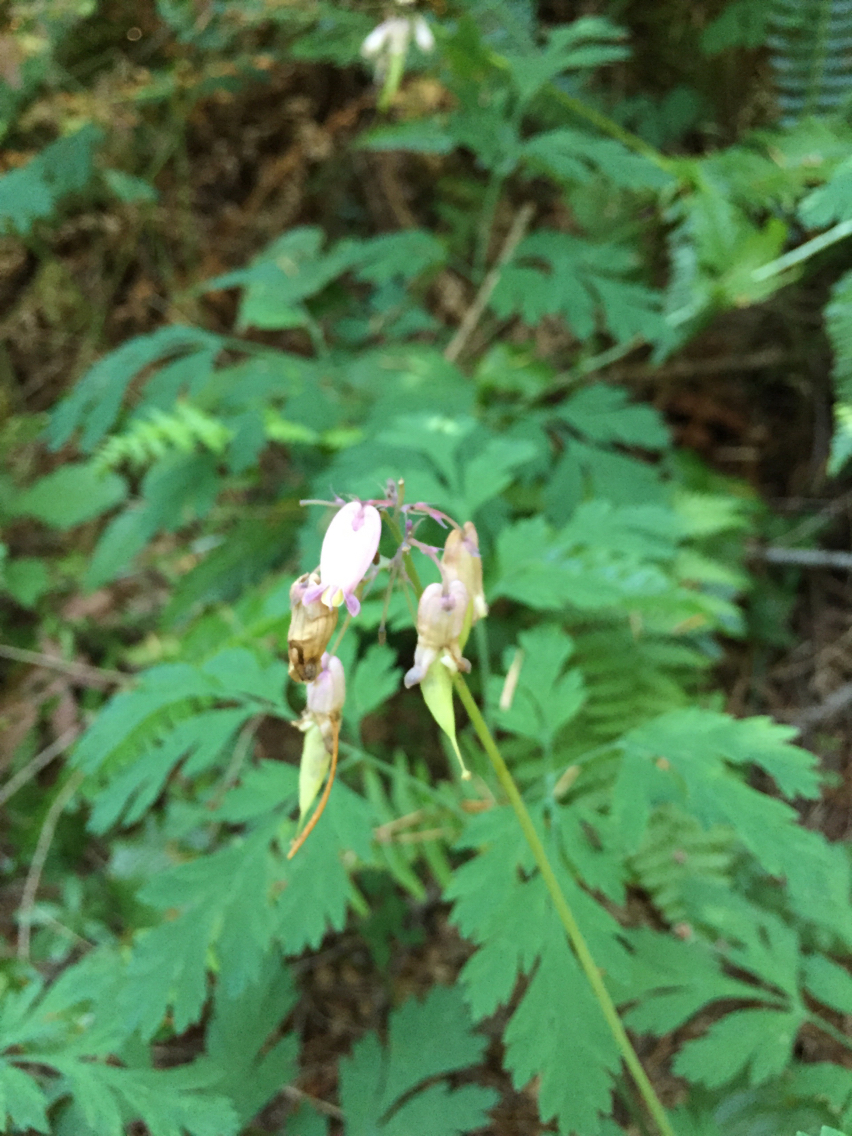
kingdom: Plantae
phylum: Tracheophyta
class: Magnoliopsida
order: Ranunculales
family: Papaveraceae
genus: Dicentra
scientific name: Dicentra formosa
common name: Bleeding-heart
